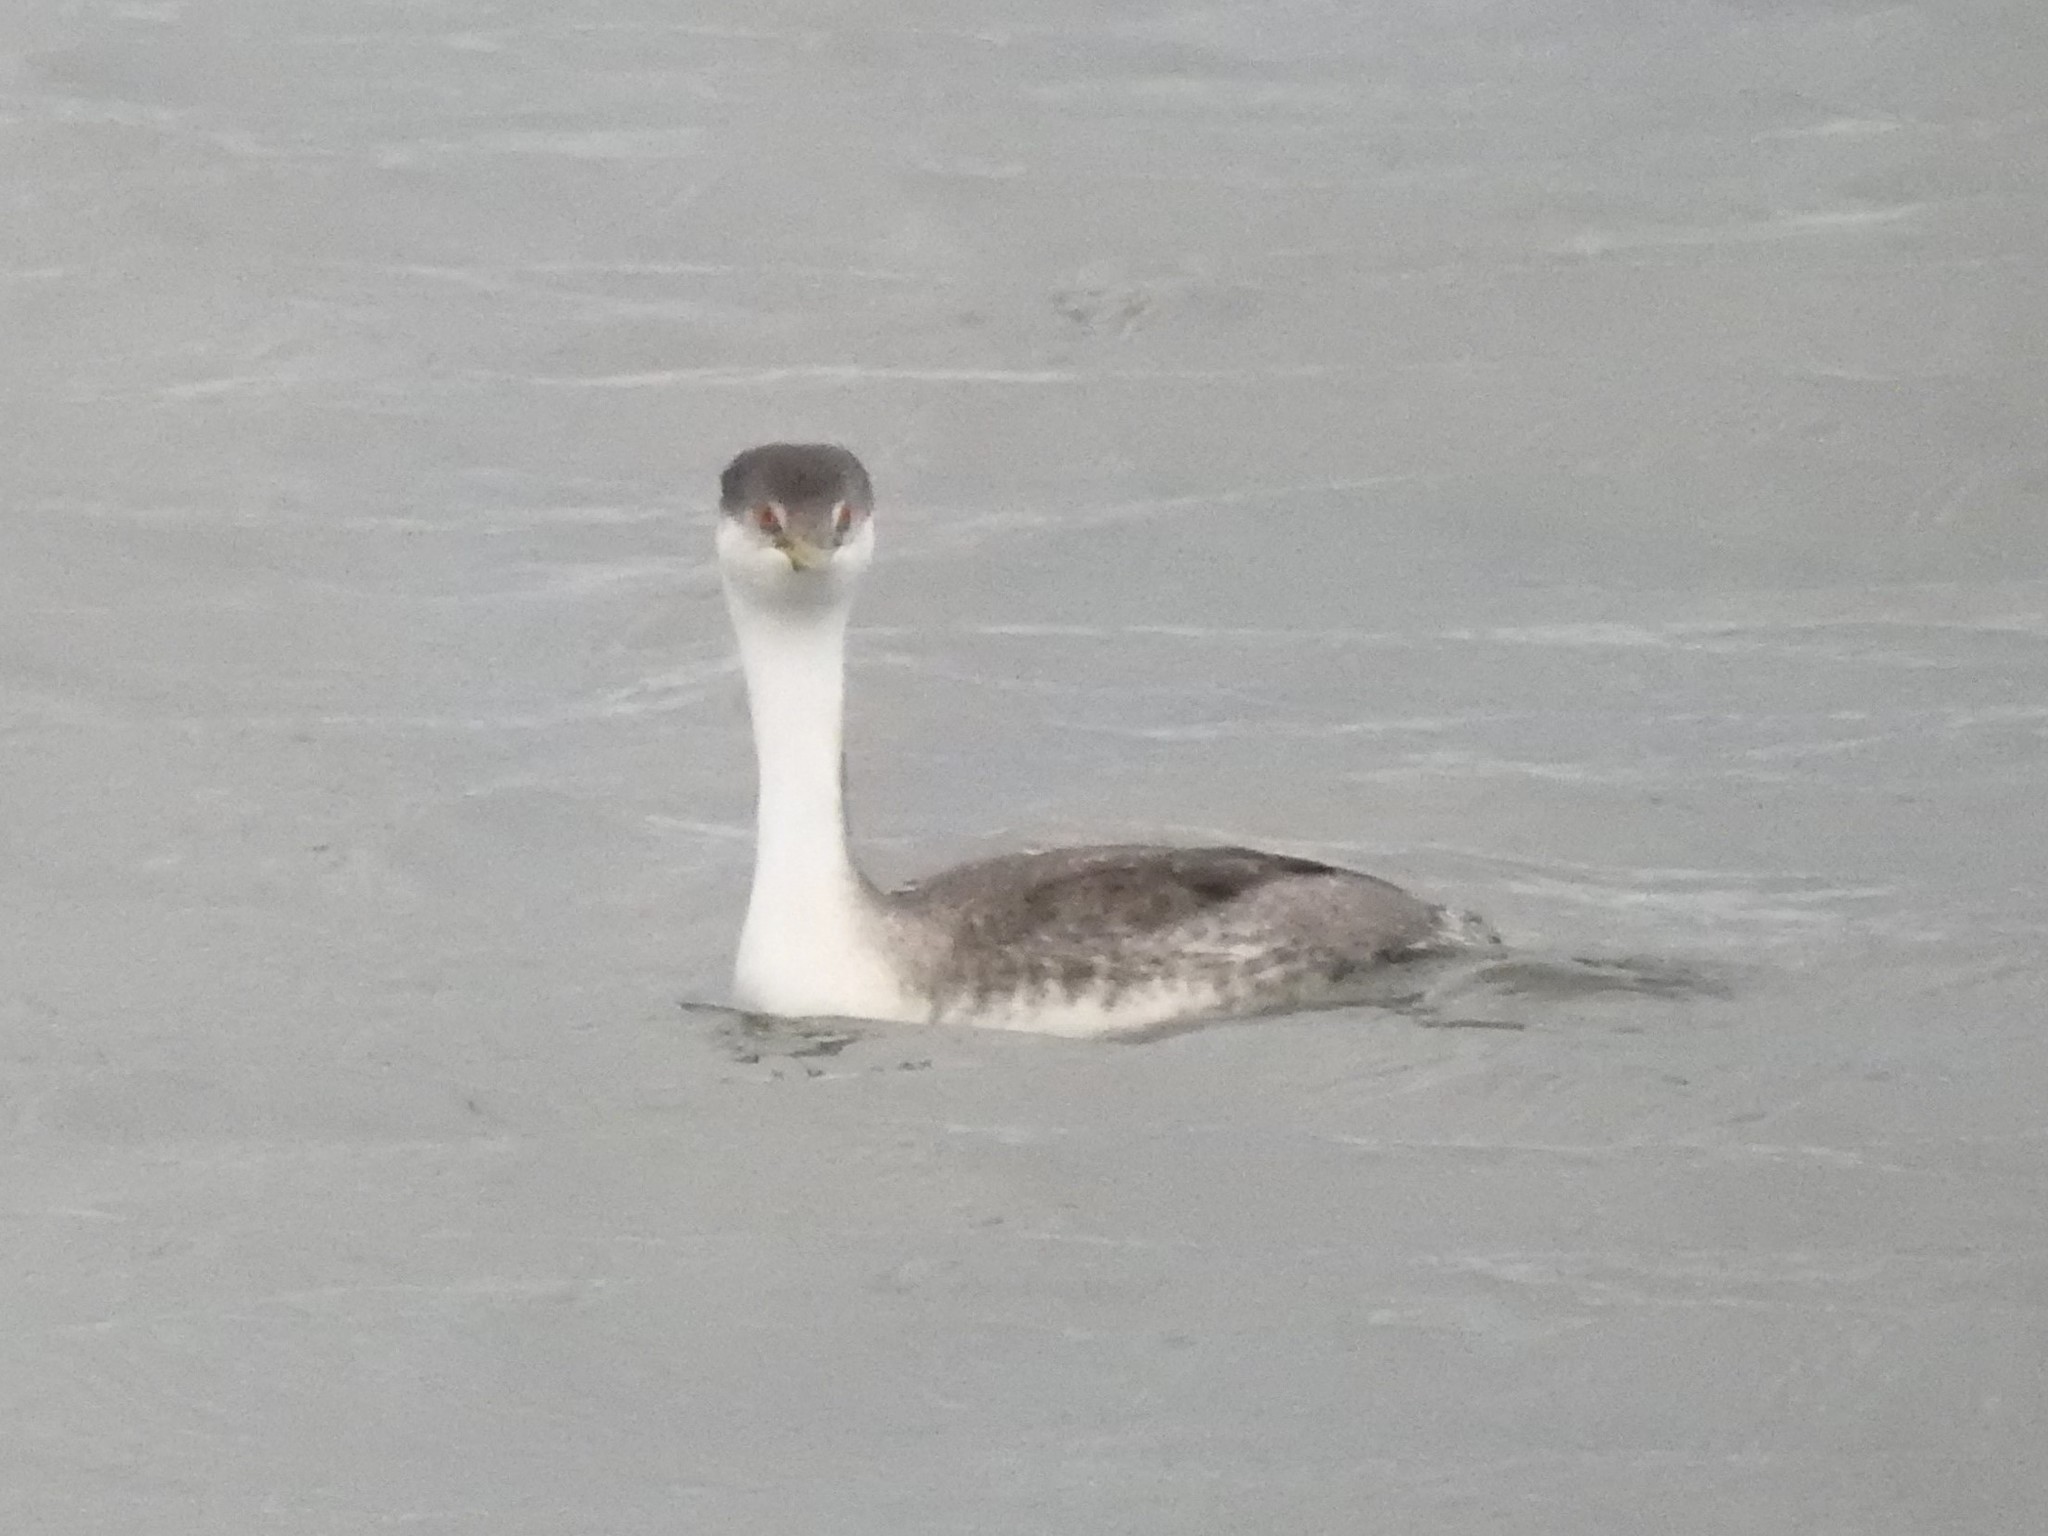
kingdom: Animalia
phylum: Chordata
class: Aves
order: Podicipediformes
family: Podicipedidae
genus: Aechmophorus
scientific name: Aechmophorus occidentalis
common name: Western grebe
